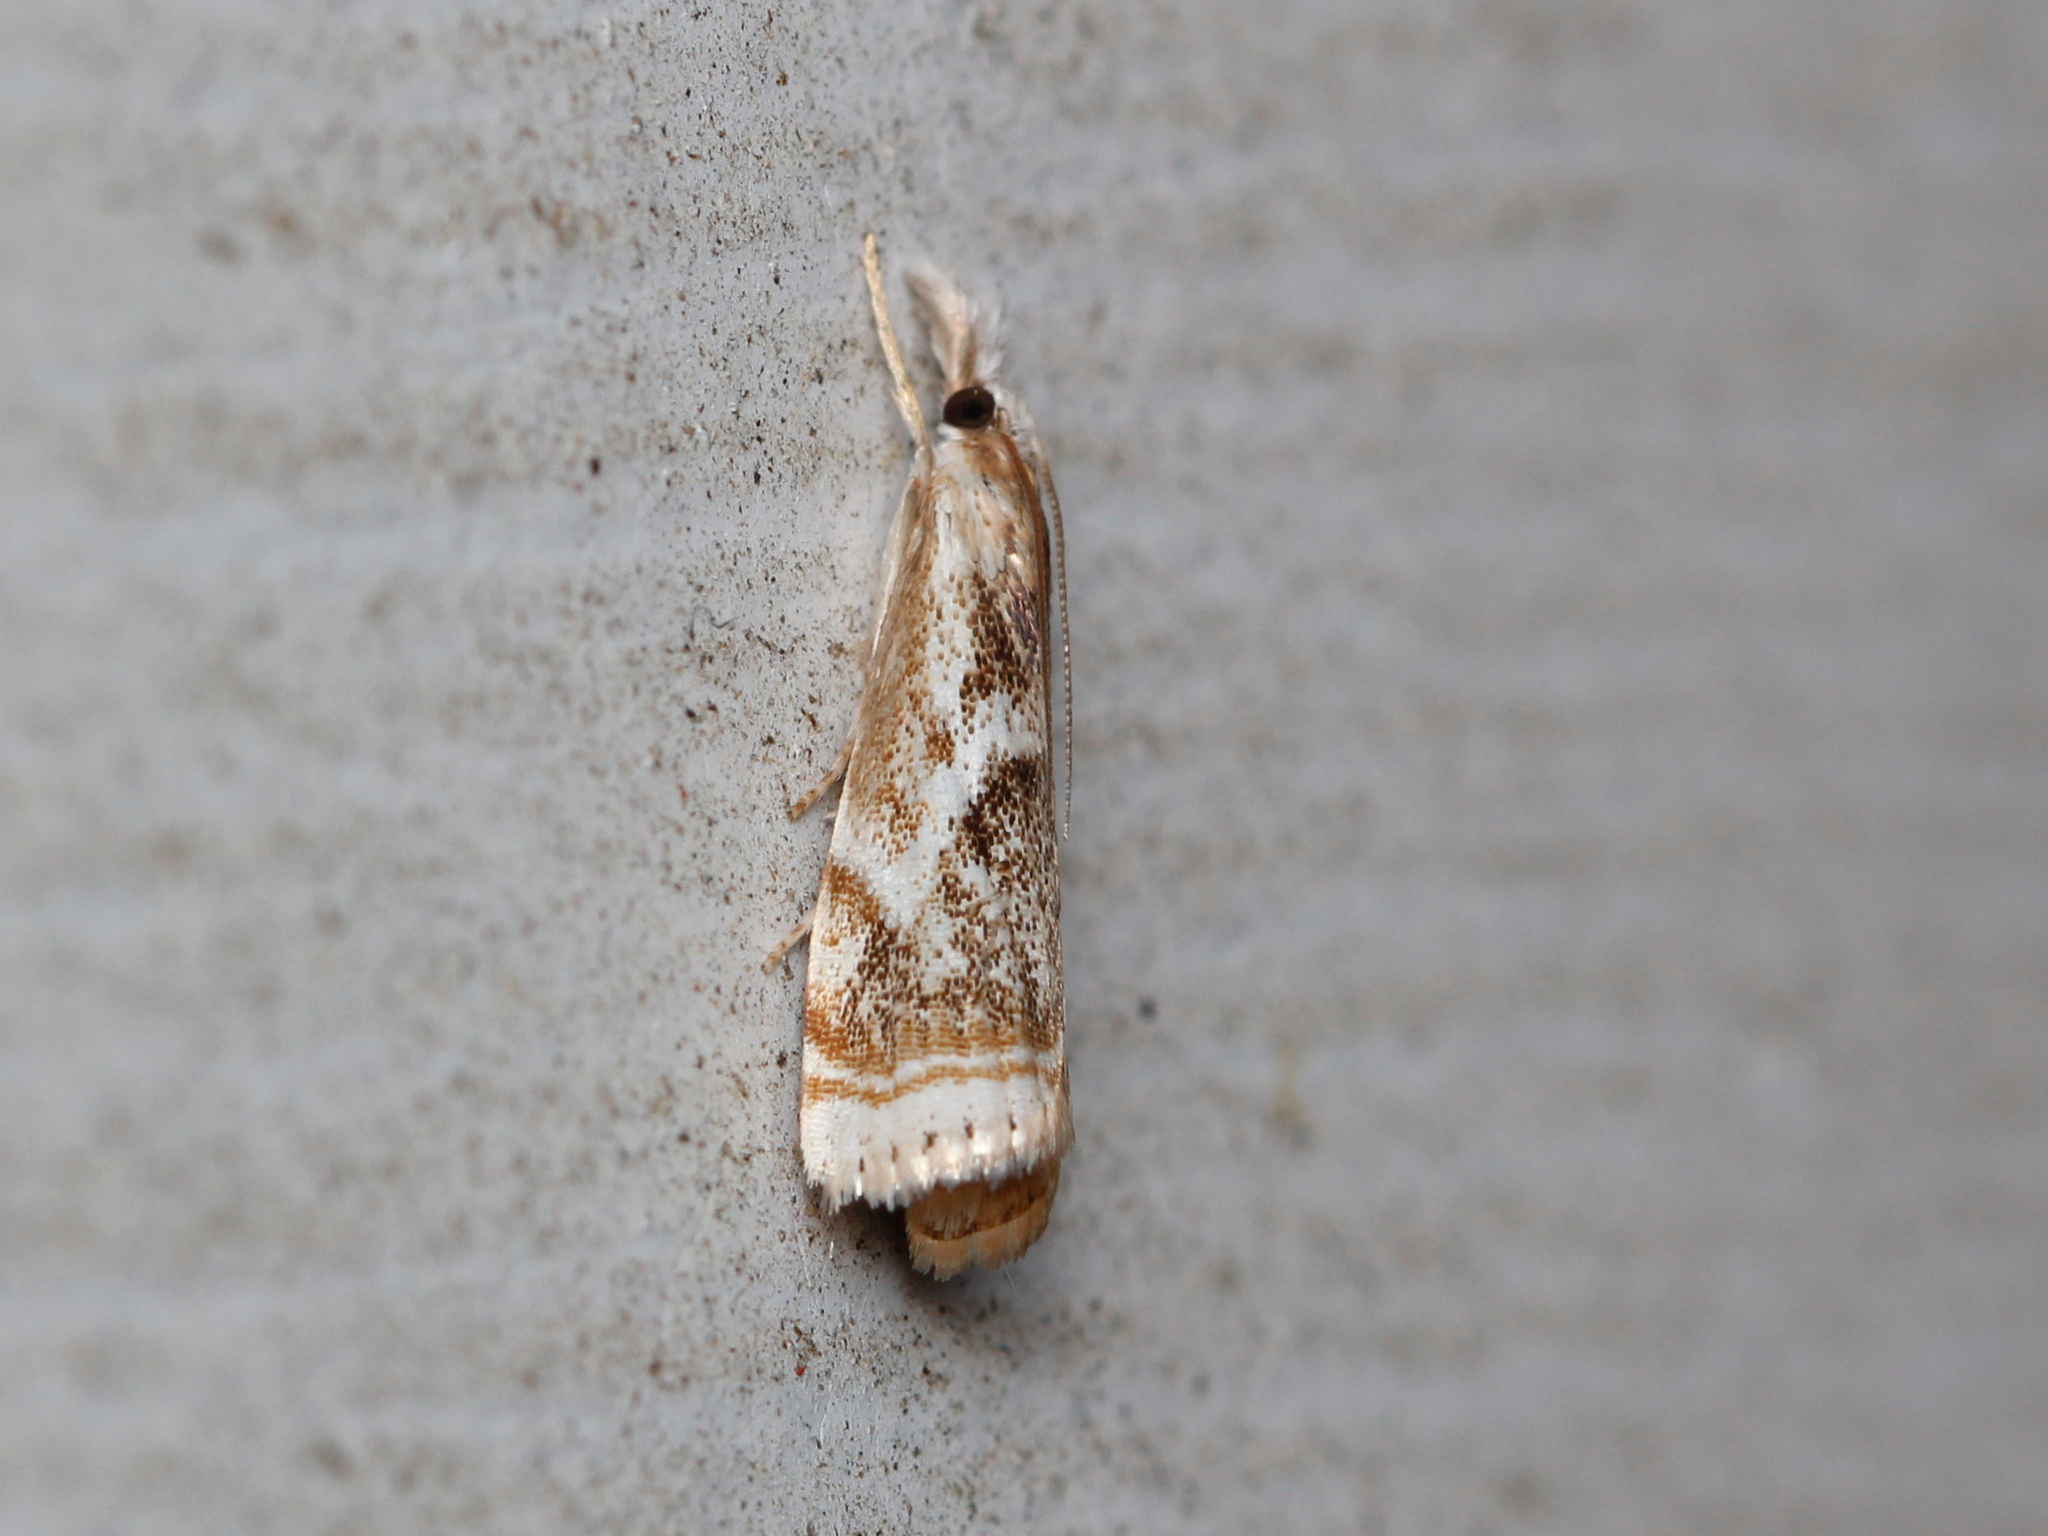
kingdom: Animalia
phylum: Arthropoda
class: Insecta
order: Lepidoptera
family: Crambidae
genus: Microcrambus
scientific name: Microcrambus elegans
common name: Elegant grass-veneer
